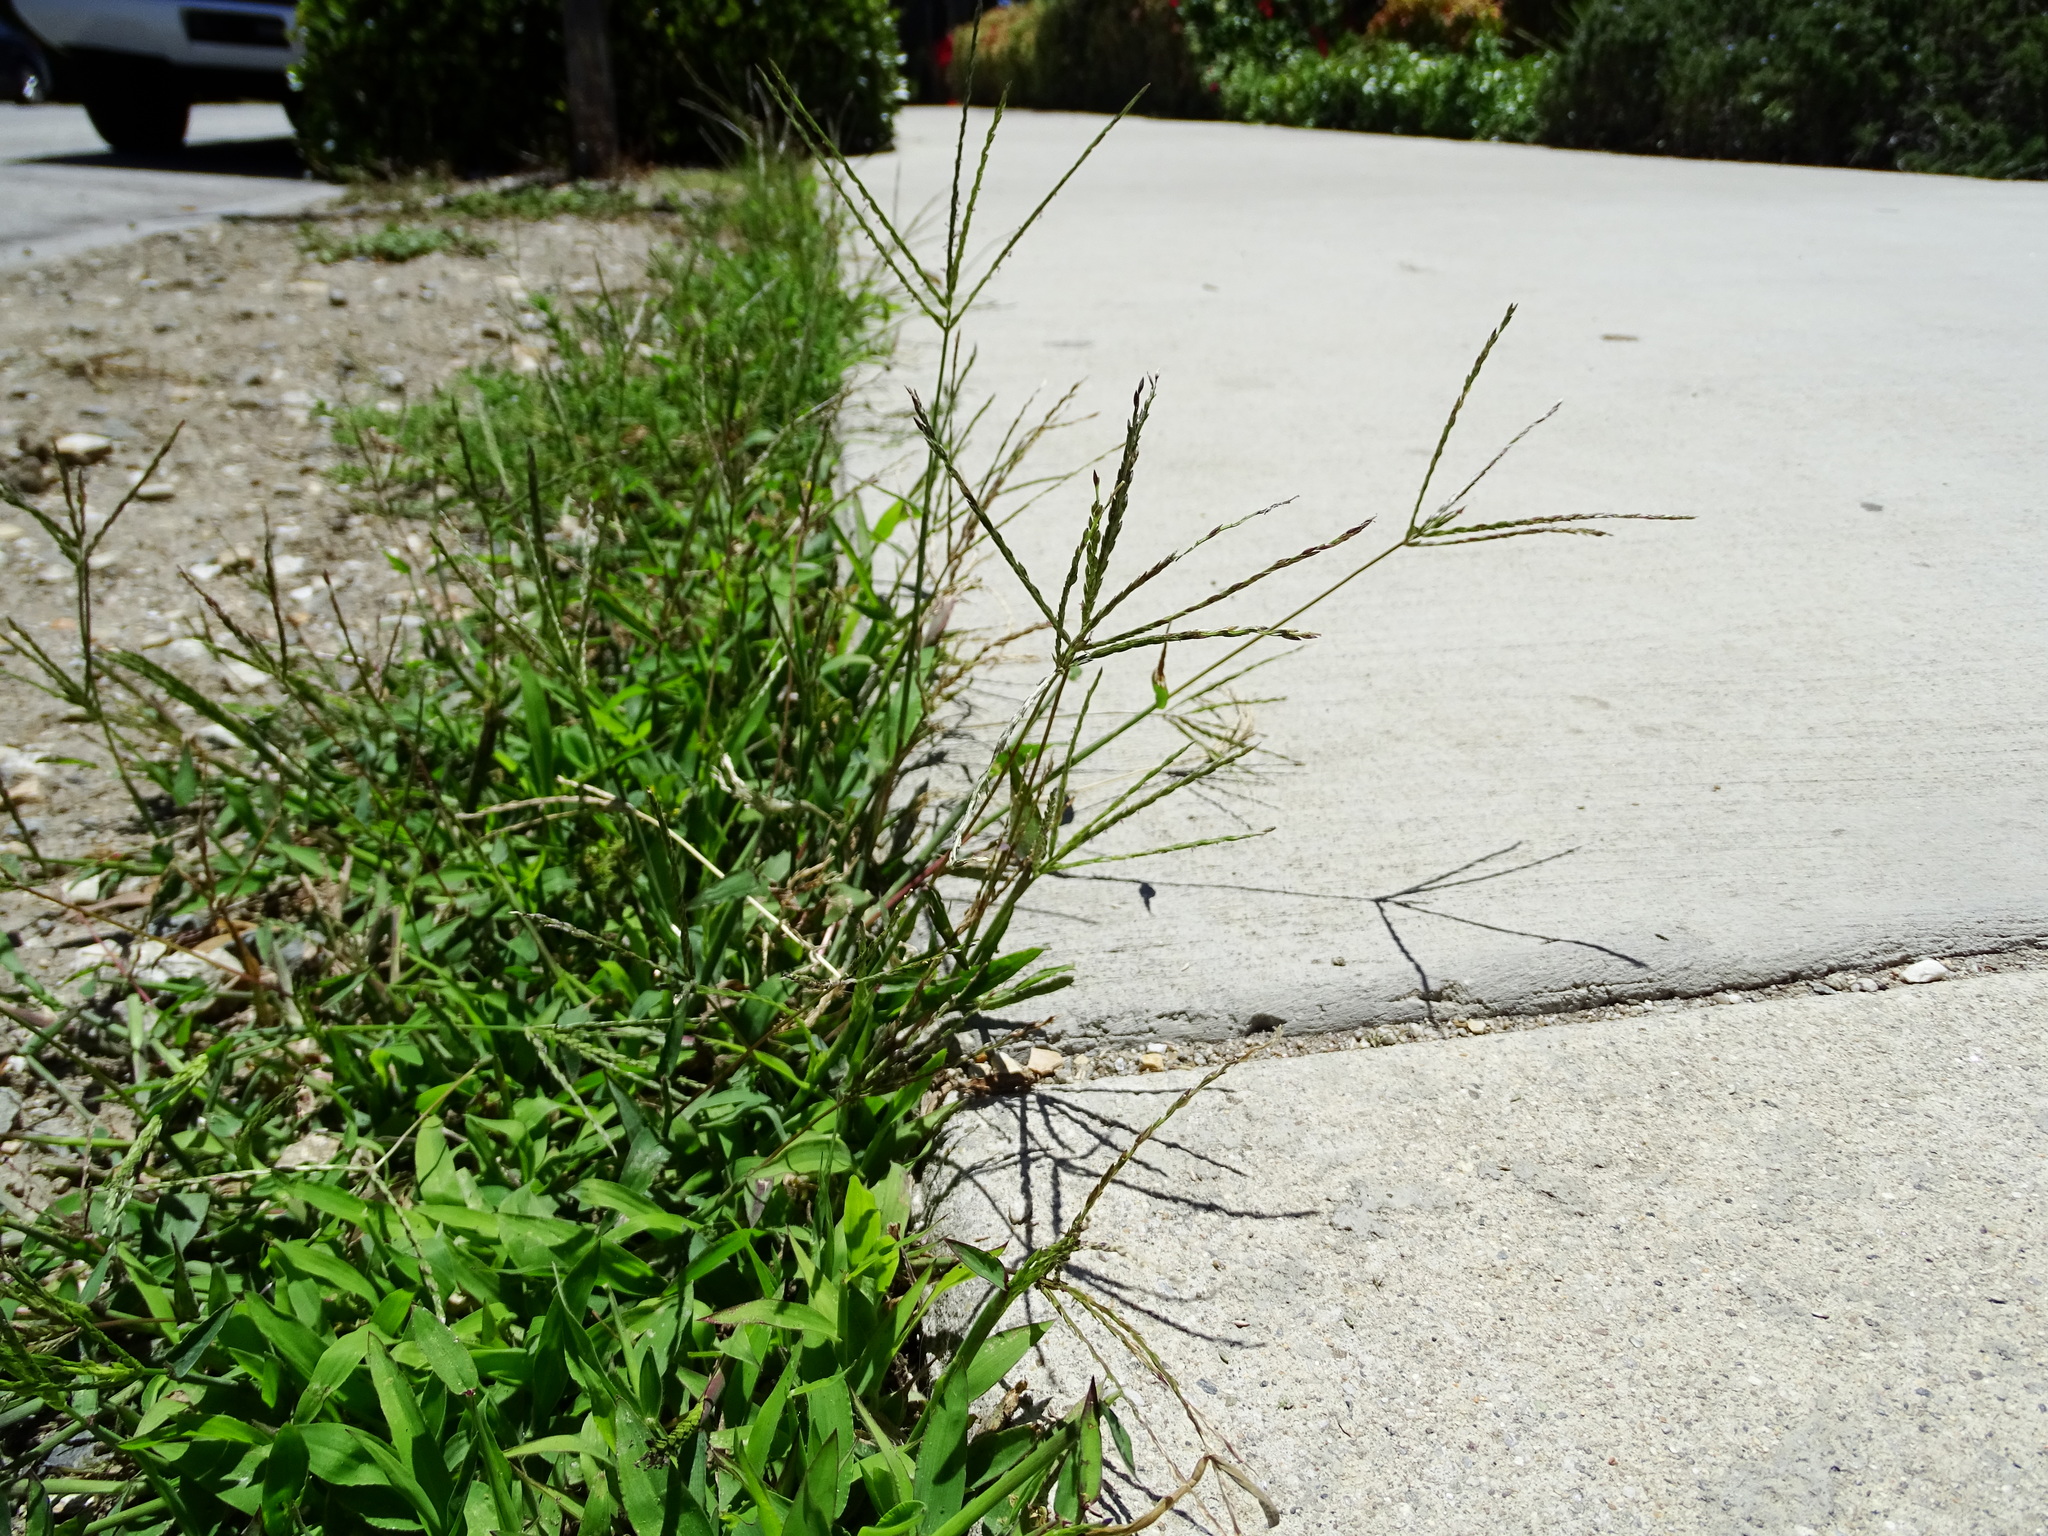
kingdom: Plantae
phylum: Tracheophyta
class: Liliopsida
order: Poales
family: Poaceae
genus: Cynodon
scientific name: Cynodon dactylon
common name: Bermuda grass
